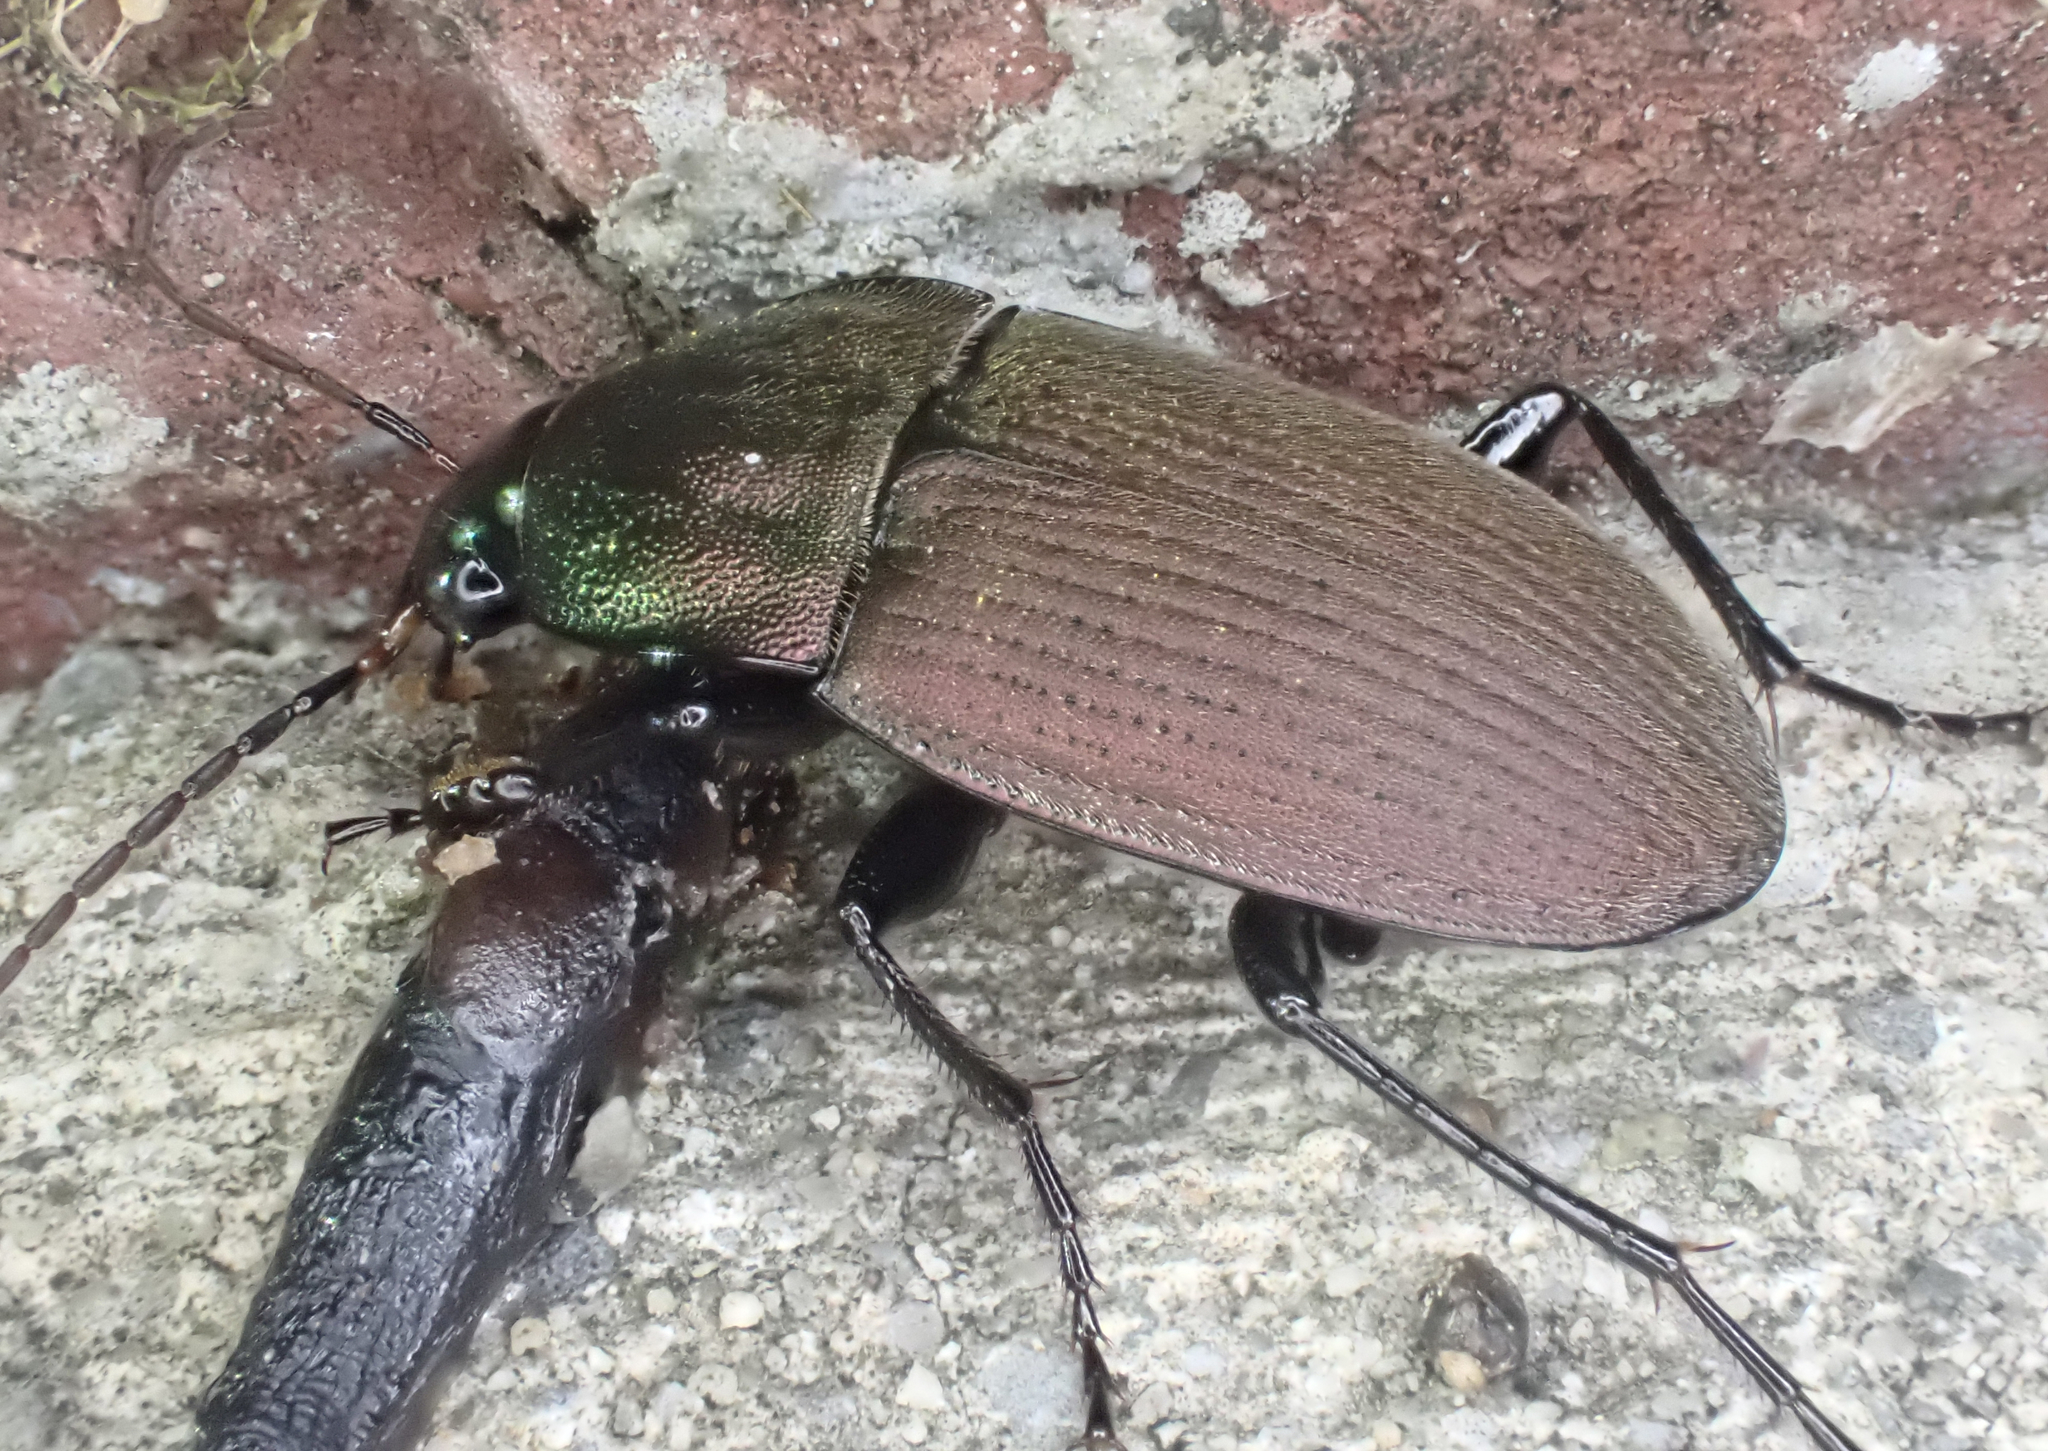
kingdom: Animalia
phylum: Arthropoda
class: Insecta
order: Coleoptera
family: Carabidae
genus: Chlaenius
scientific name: Chlaenius tomentosus
